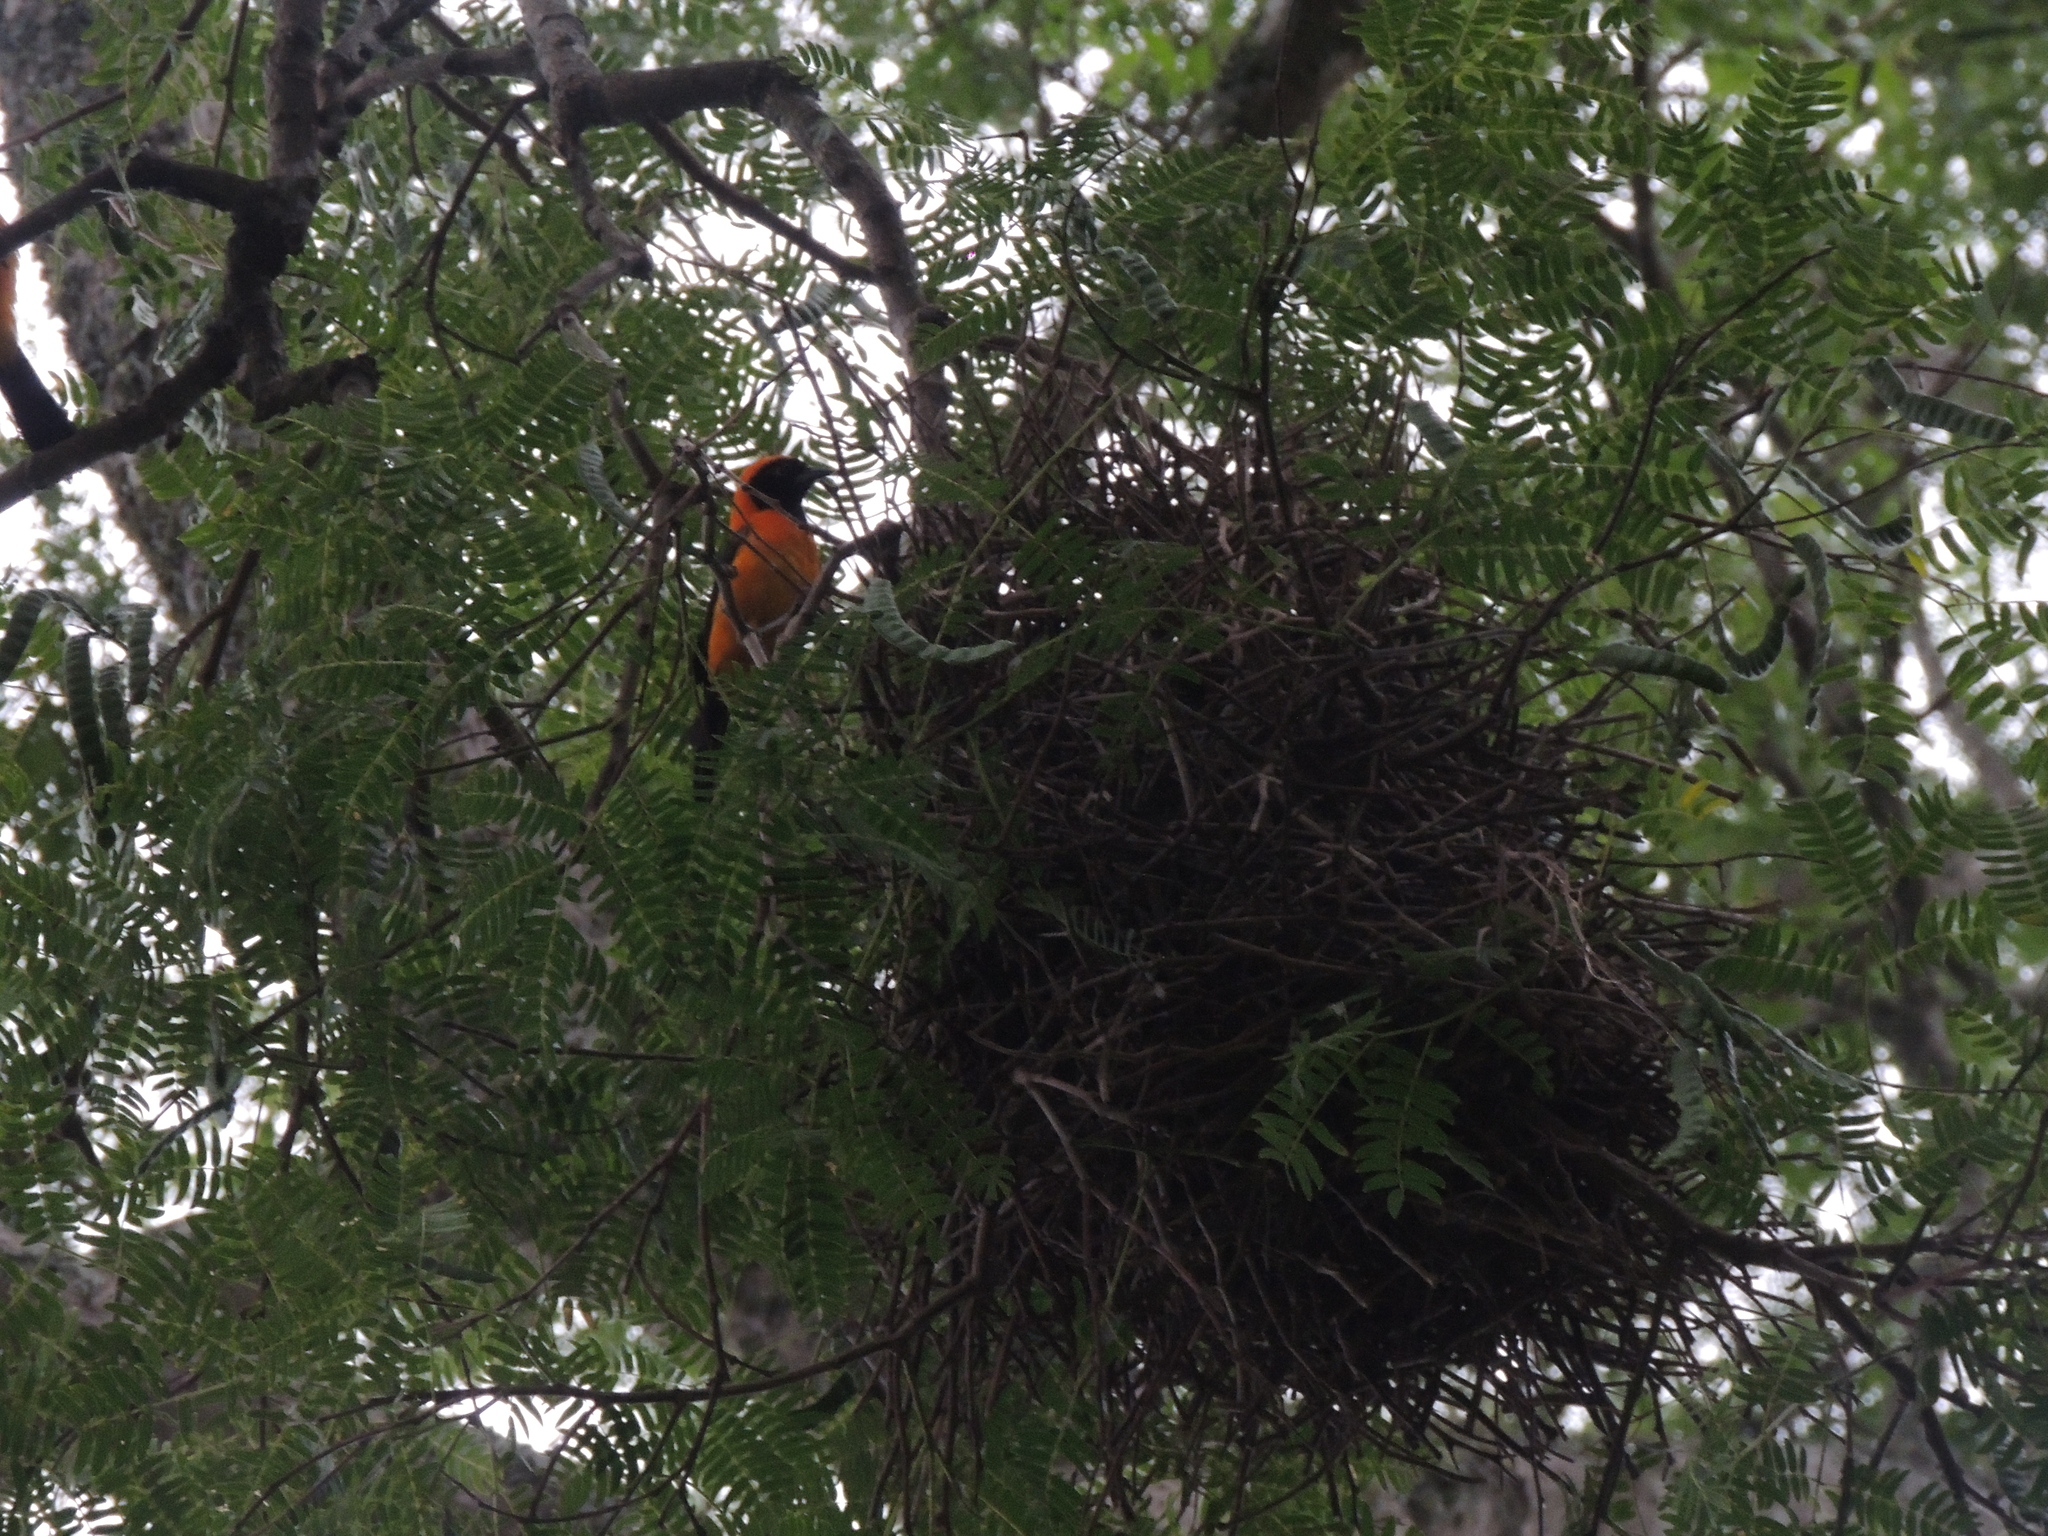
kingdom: Animalia
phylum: Chordata
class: Aves
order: Passeriformes
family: Icteridae
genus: Icterus
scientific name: Icterus icterus
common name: Venezuelan troupial
